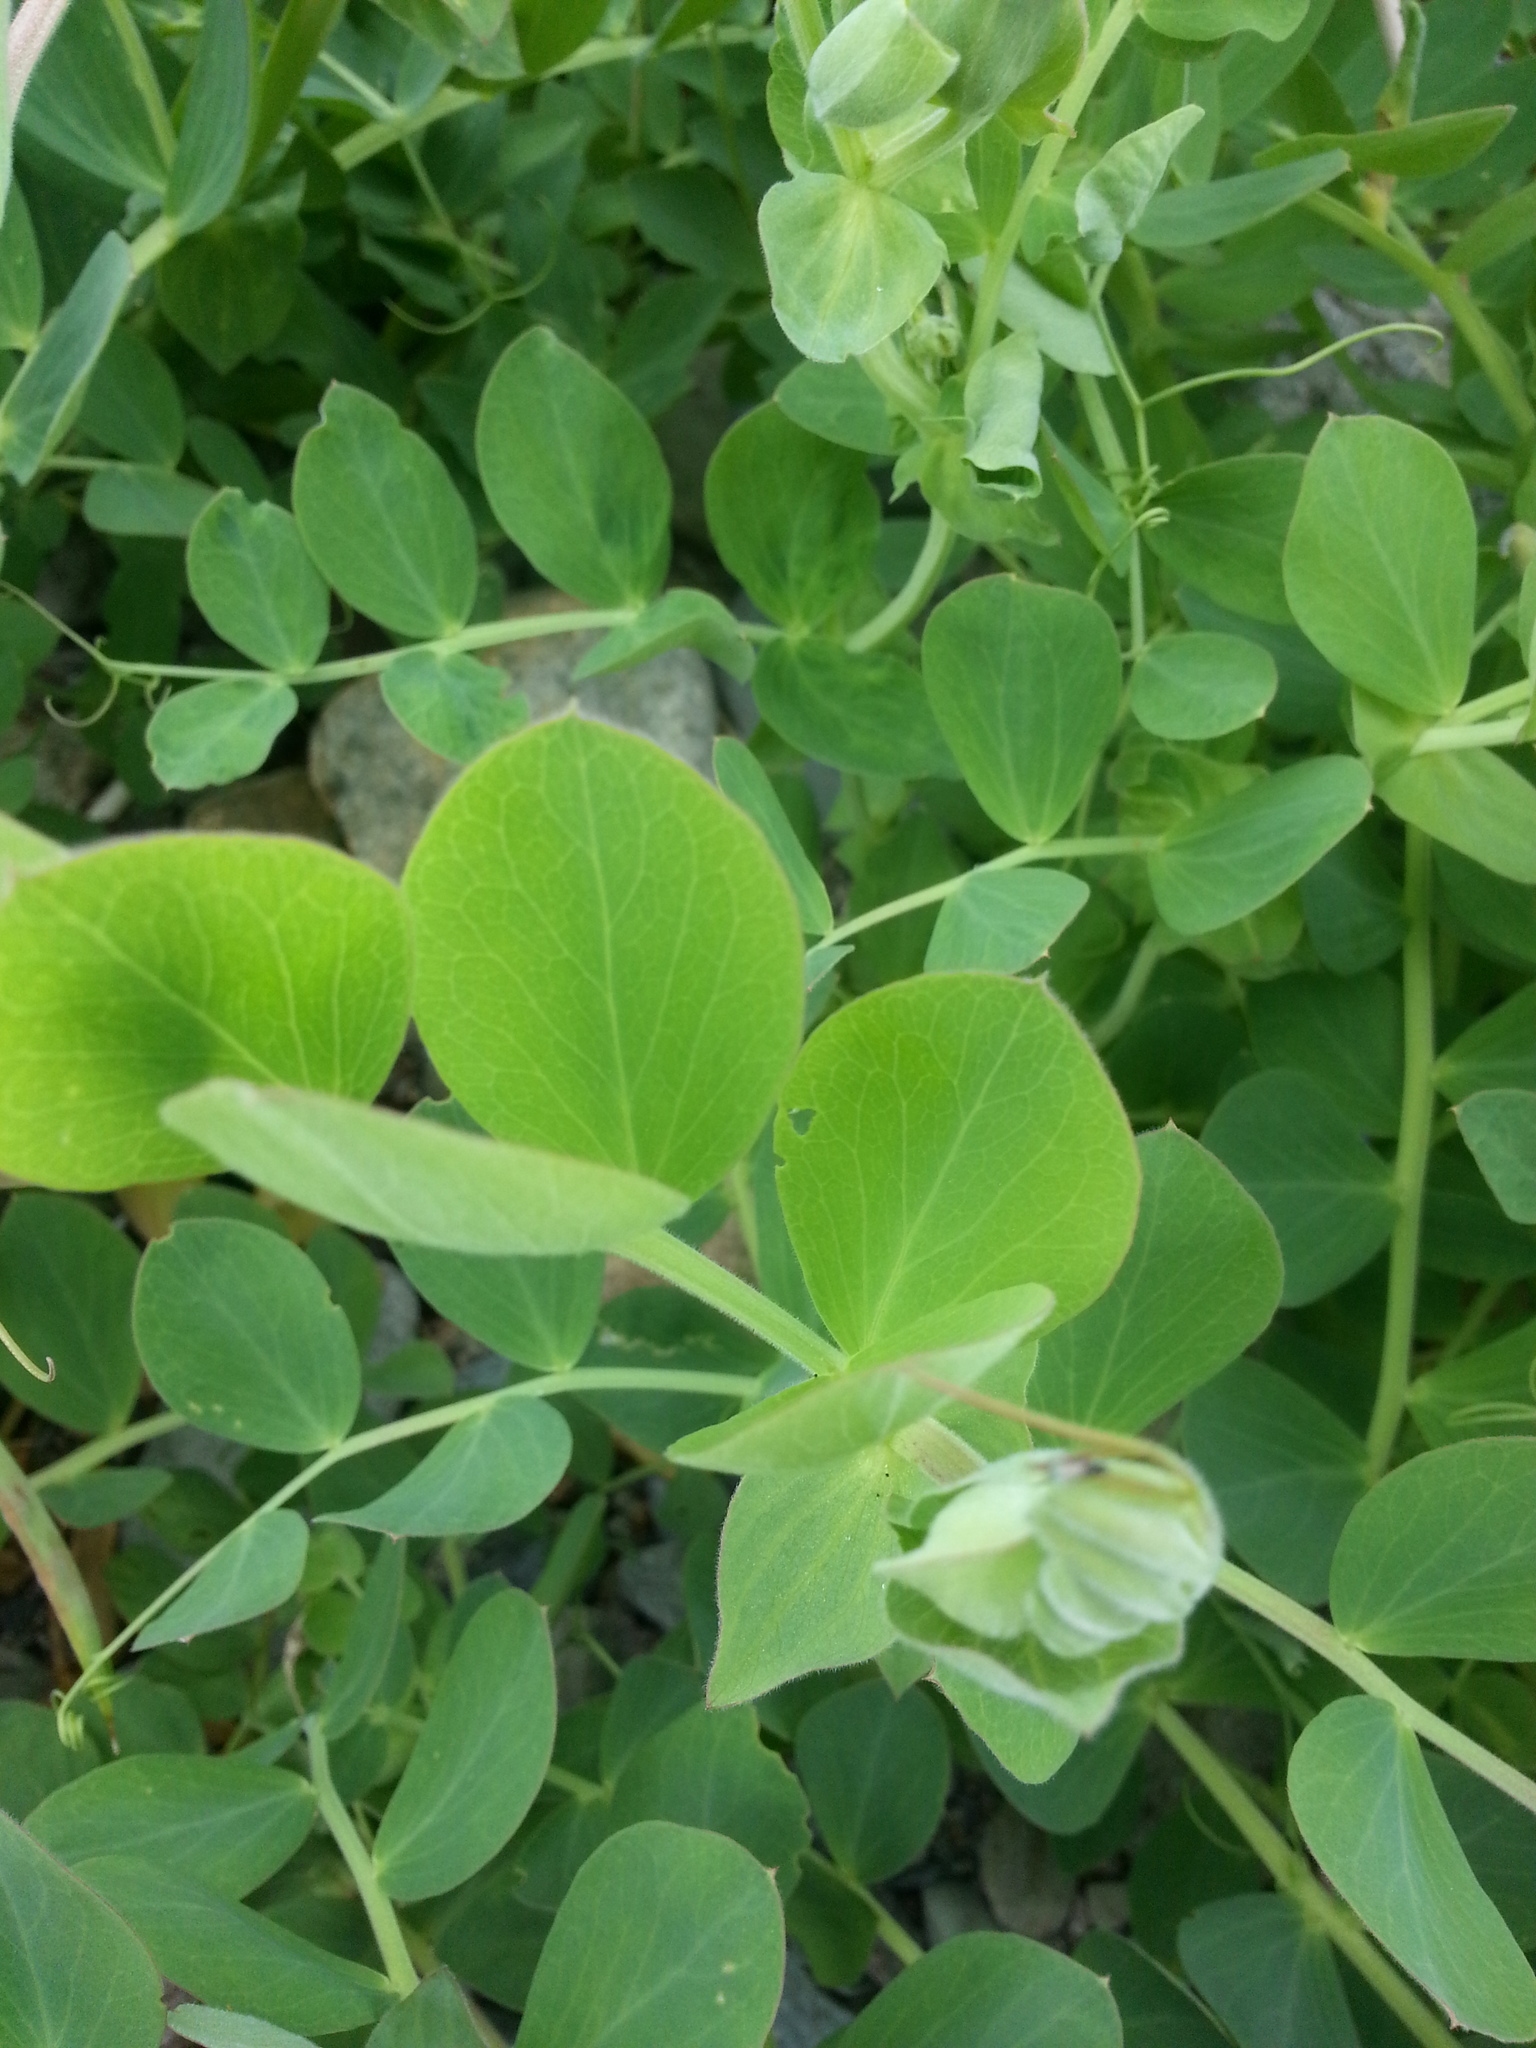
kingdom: Plantae
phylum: Tracheophyta
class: Magnoliopsida
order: Fabales
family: Fabaceae
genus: Lathyrus
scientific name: Lathyrus japonicus
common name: Sea pea
